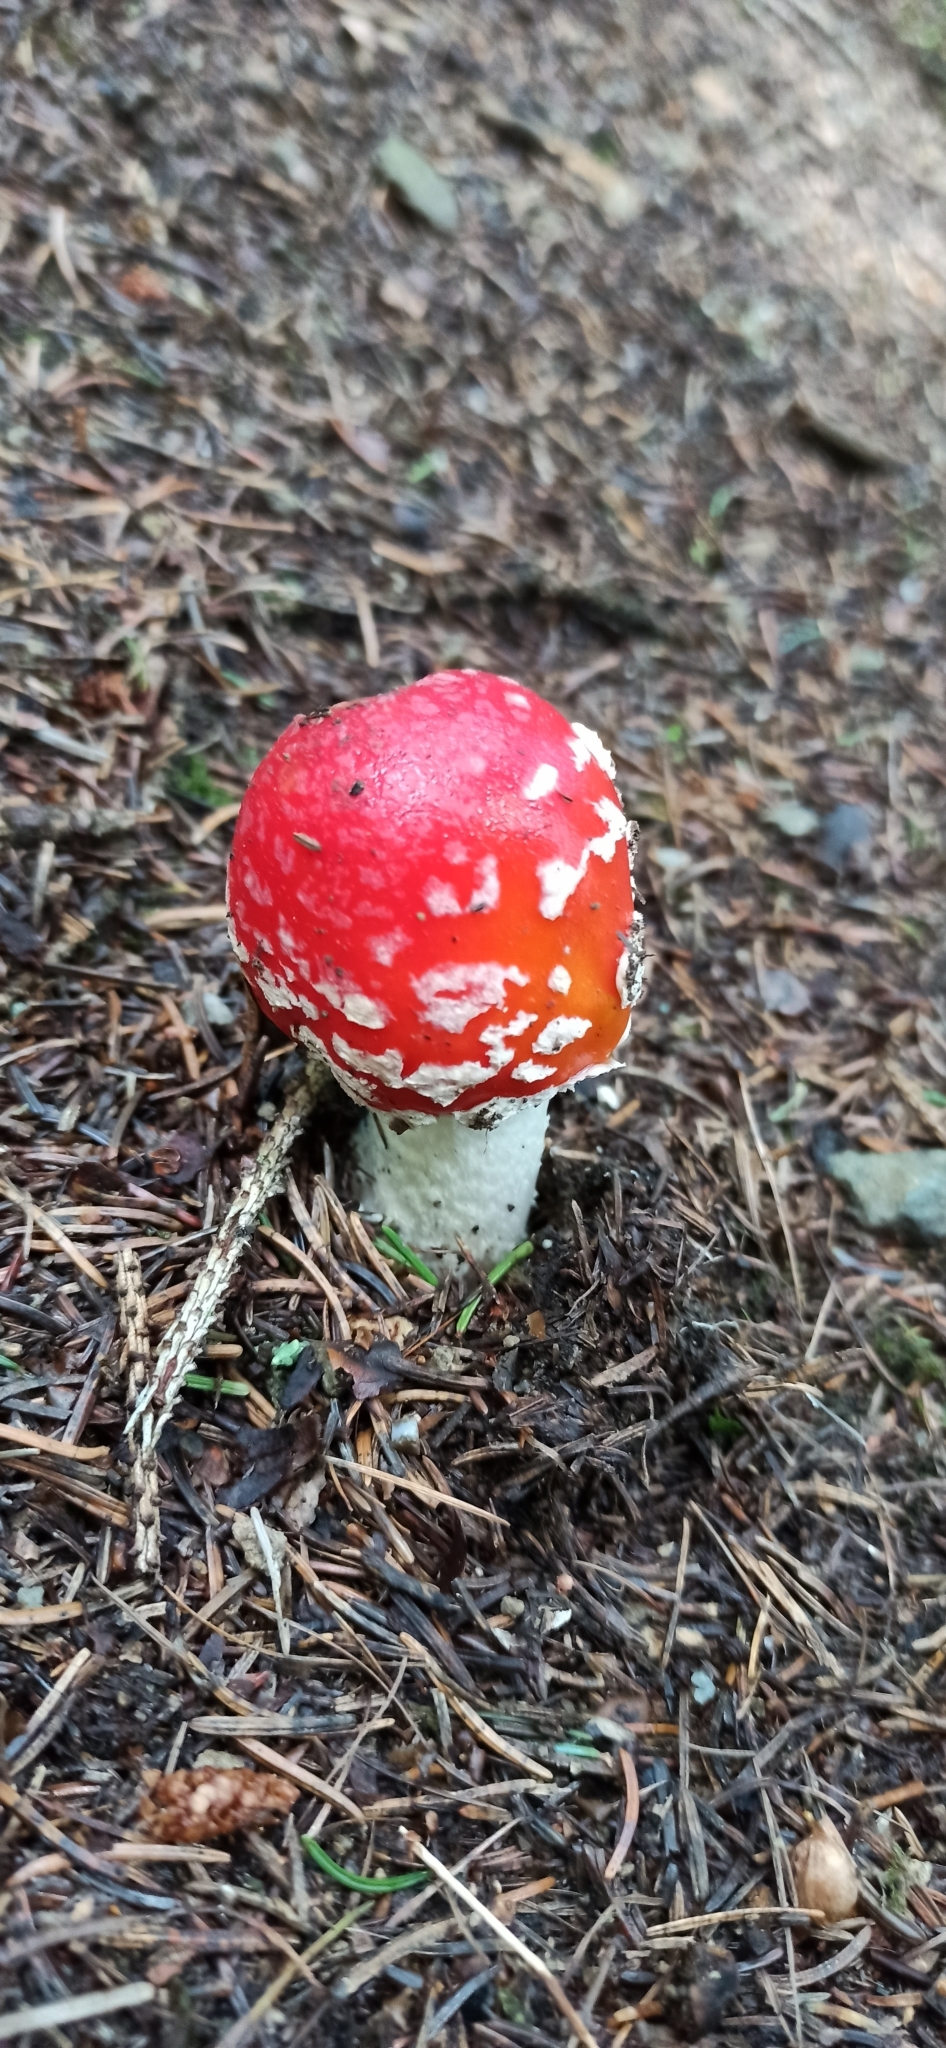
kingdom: Fungi
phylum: Basidiomycota
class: Agaricomycetes
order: Agaricales
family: Amanitaceae
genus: Amanita
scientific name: Amanita muscaria
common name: Fly agaric
